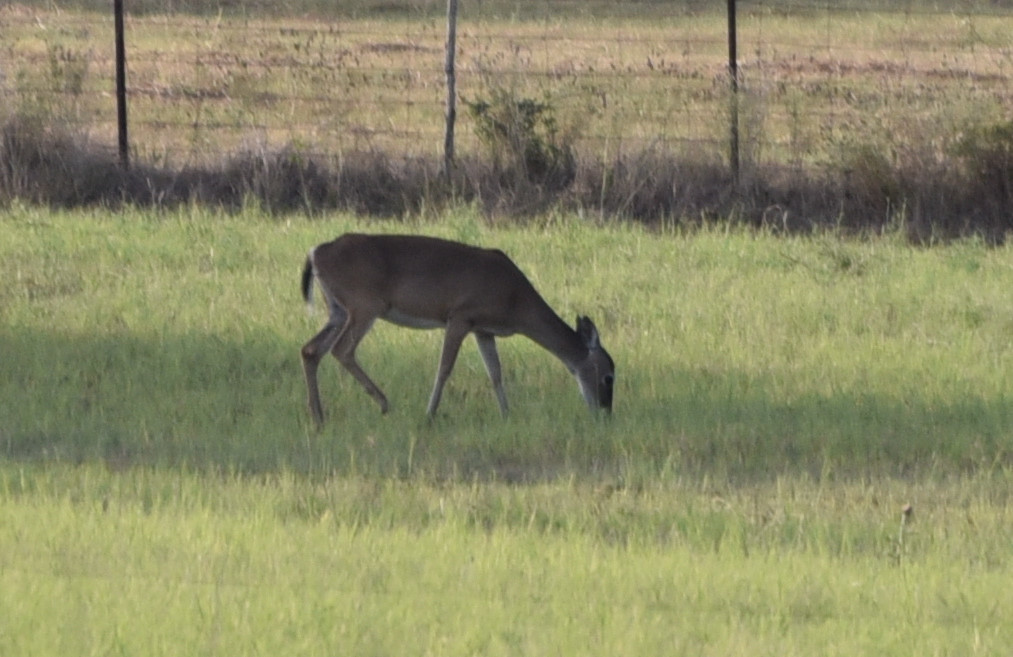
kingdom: Animalia
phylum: Chordata
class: Mammalia
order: Artiodactyla
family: Cervidae
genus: Odocoileus
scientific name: Odocoileus virginianus
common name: White-tailed deer
